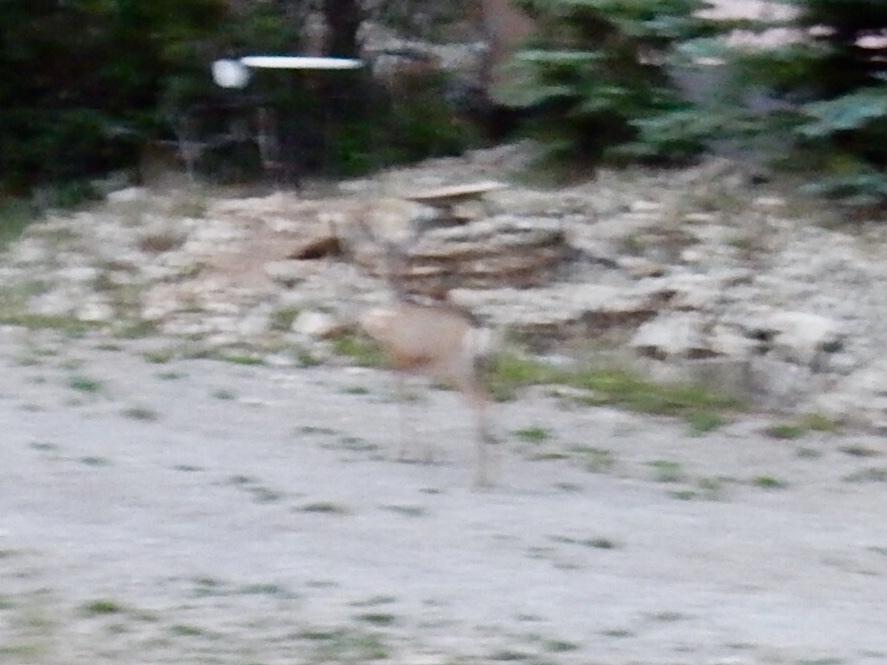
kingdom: Animalia
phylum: Chordata
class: Mammalia
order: Artiodactyla
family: Cervidae
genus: Odocoileus
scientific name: Odocoileus hemionus
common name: Mule deer
